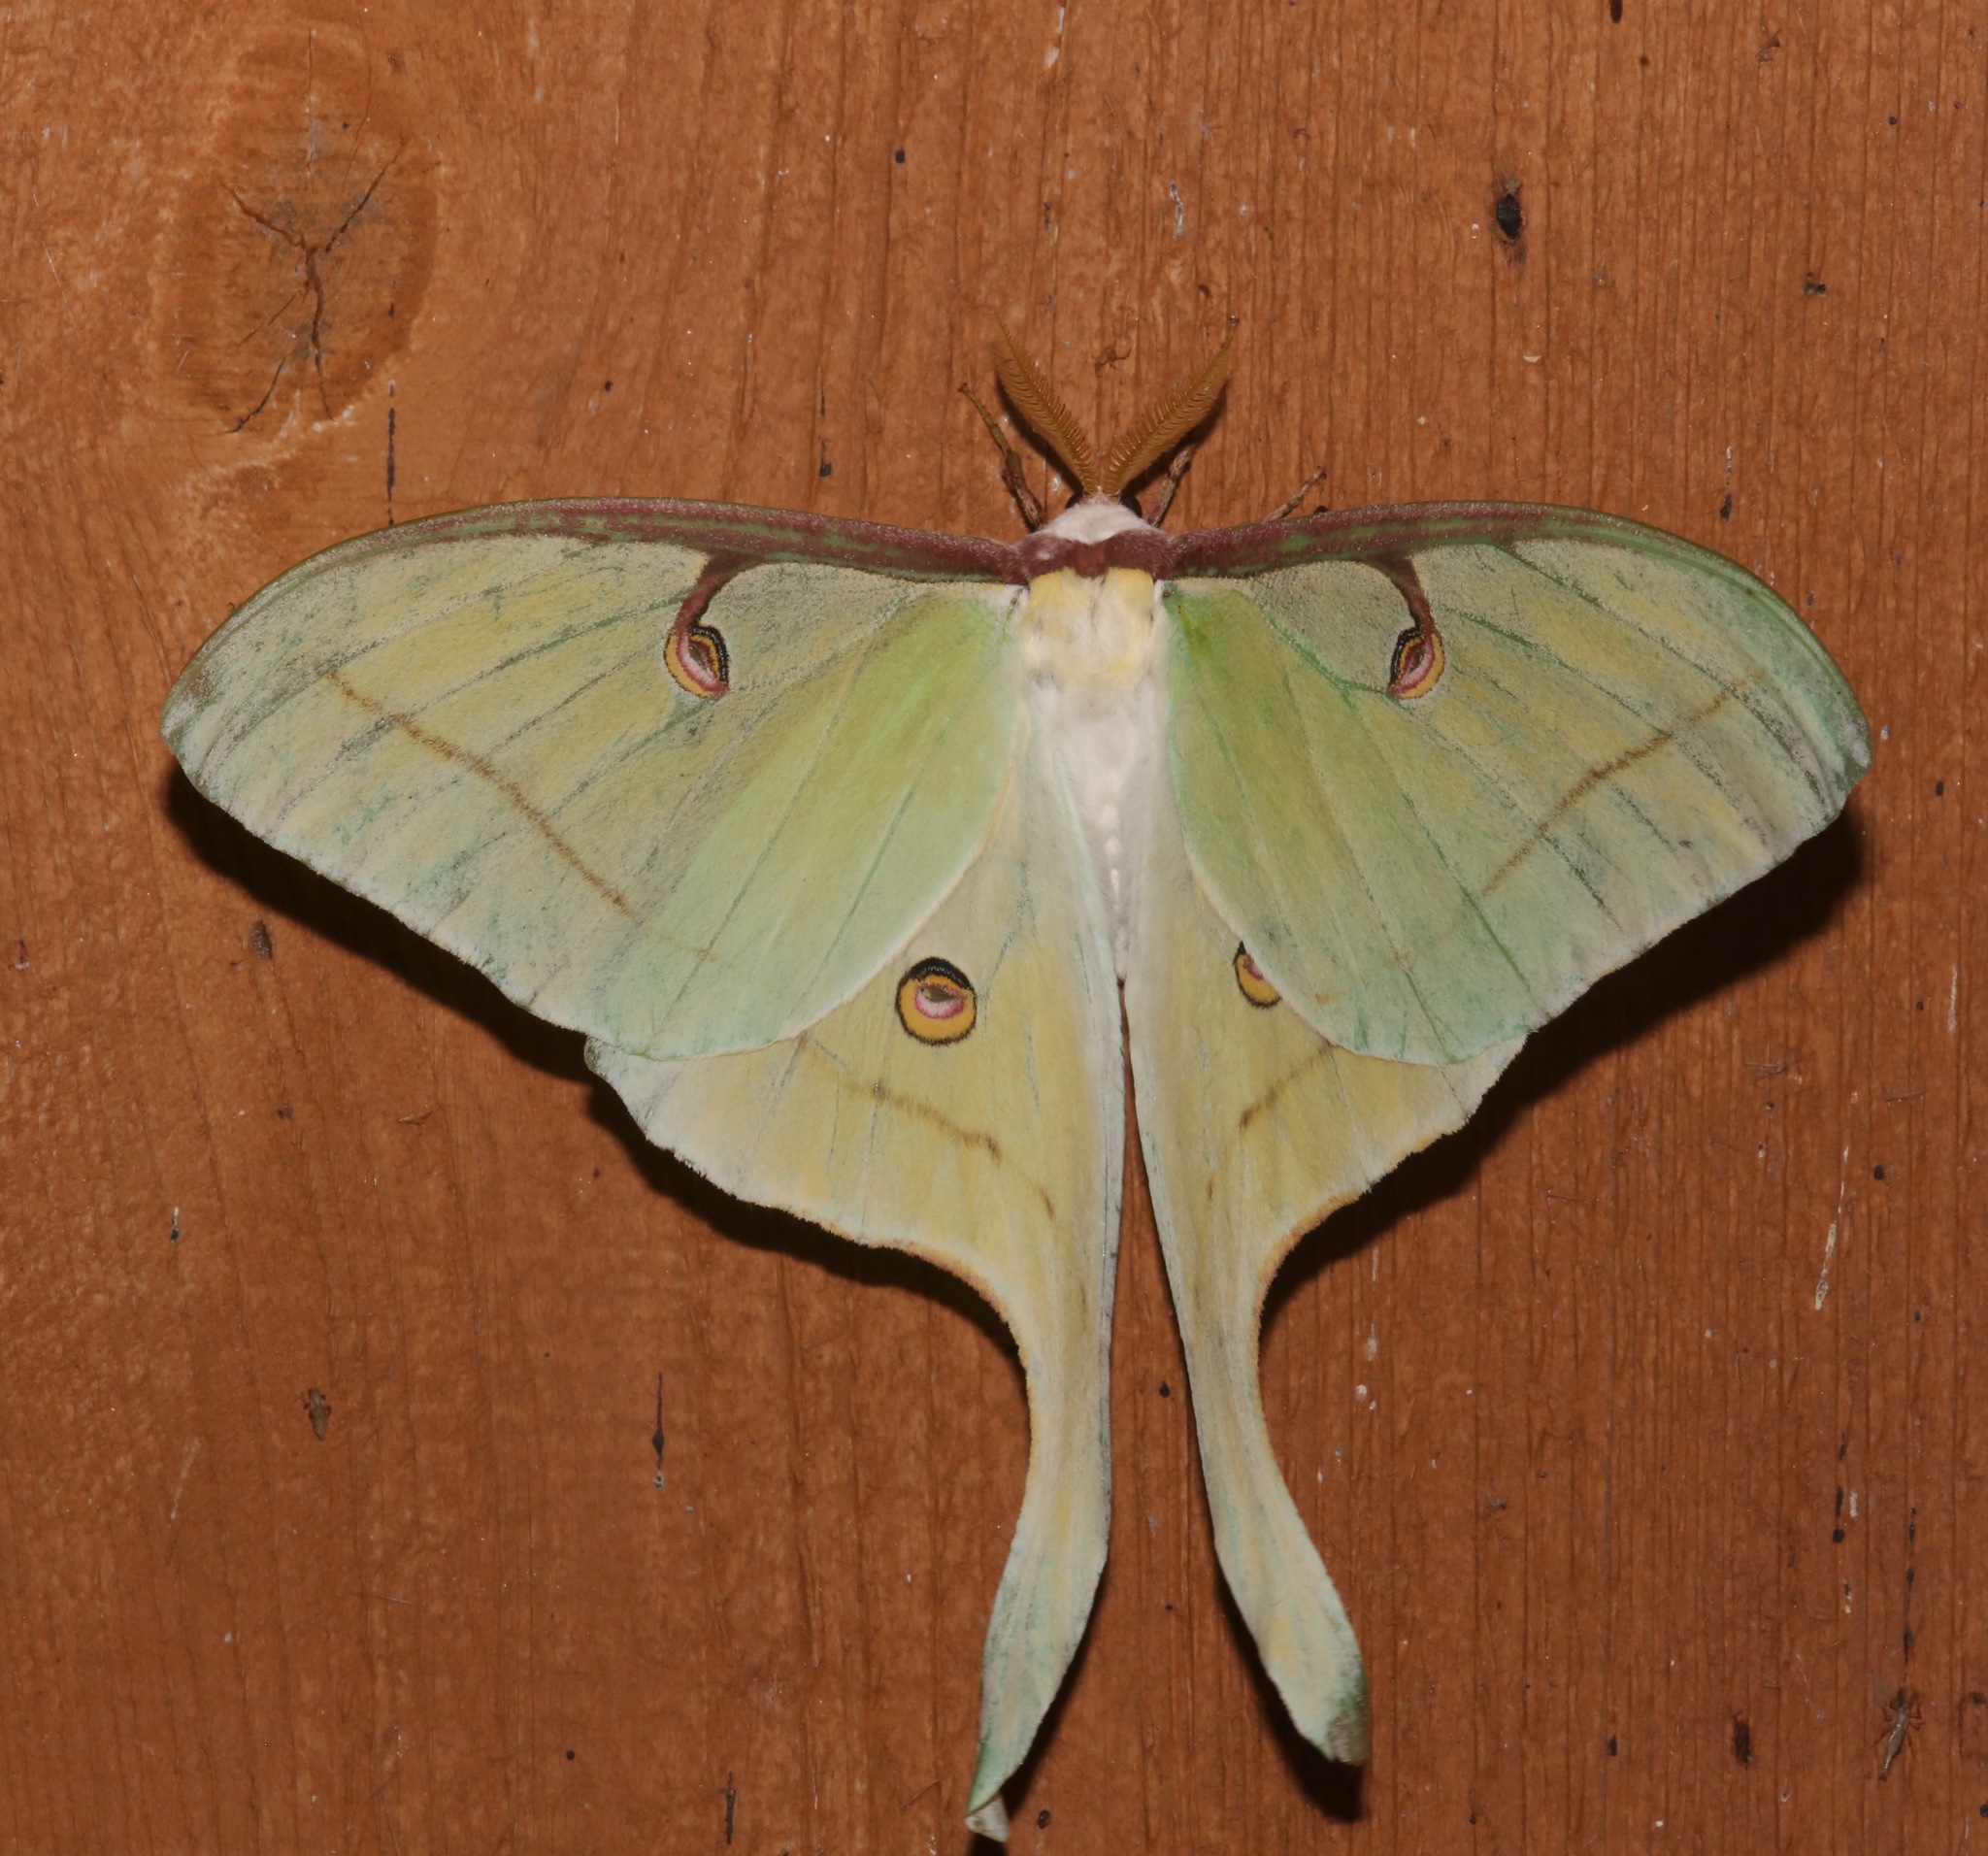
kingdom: Animalia
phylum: Arthropoda
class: Insecta
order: Lepidoptera
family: Saturniidae
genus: Actias
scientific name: Actias luna
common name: Luna moth
